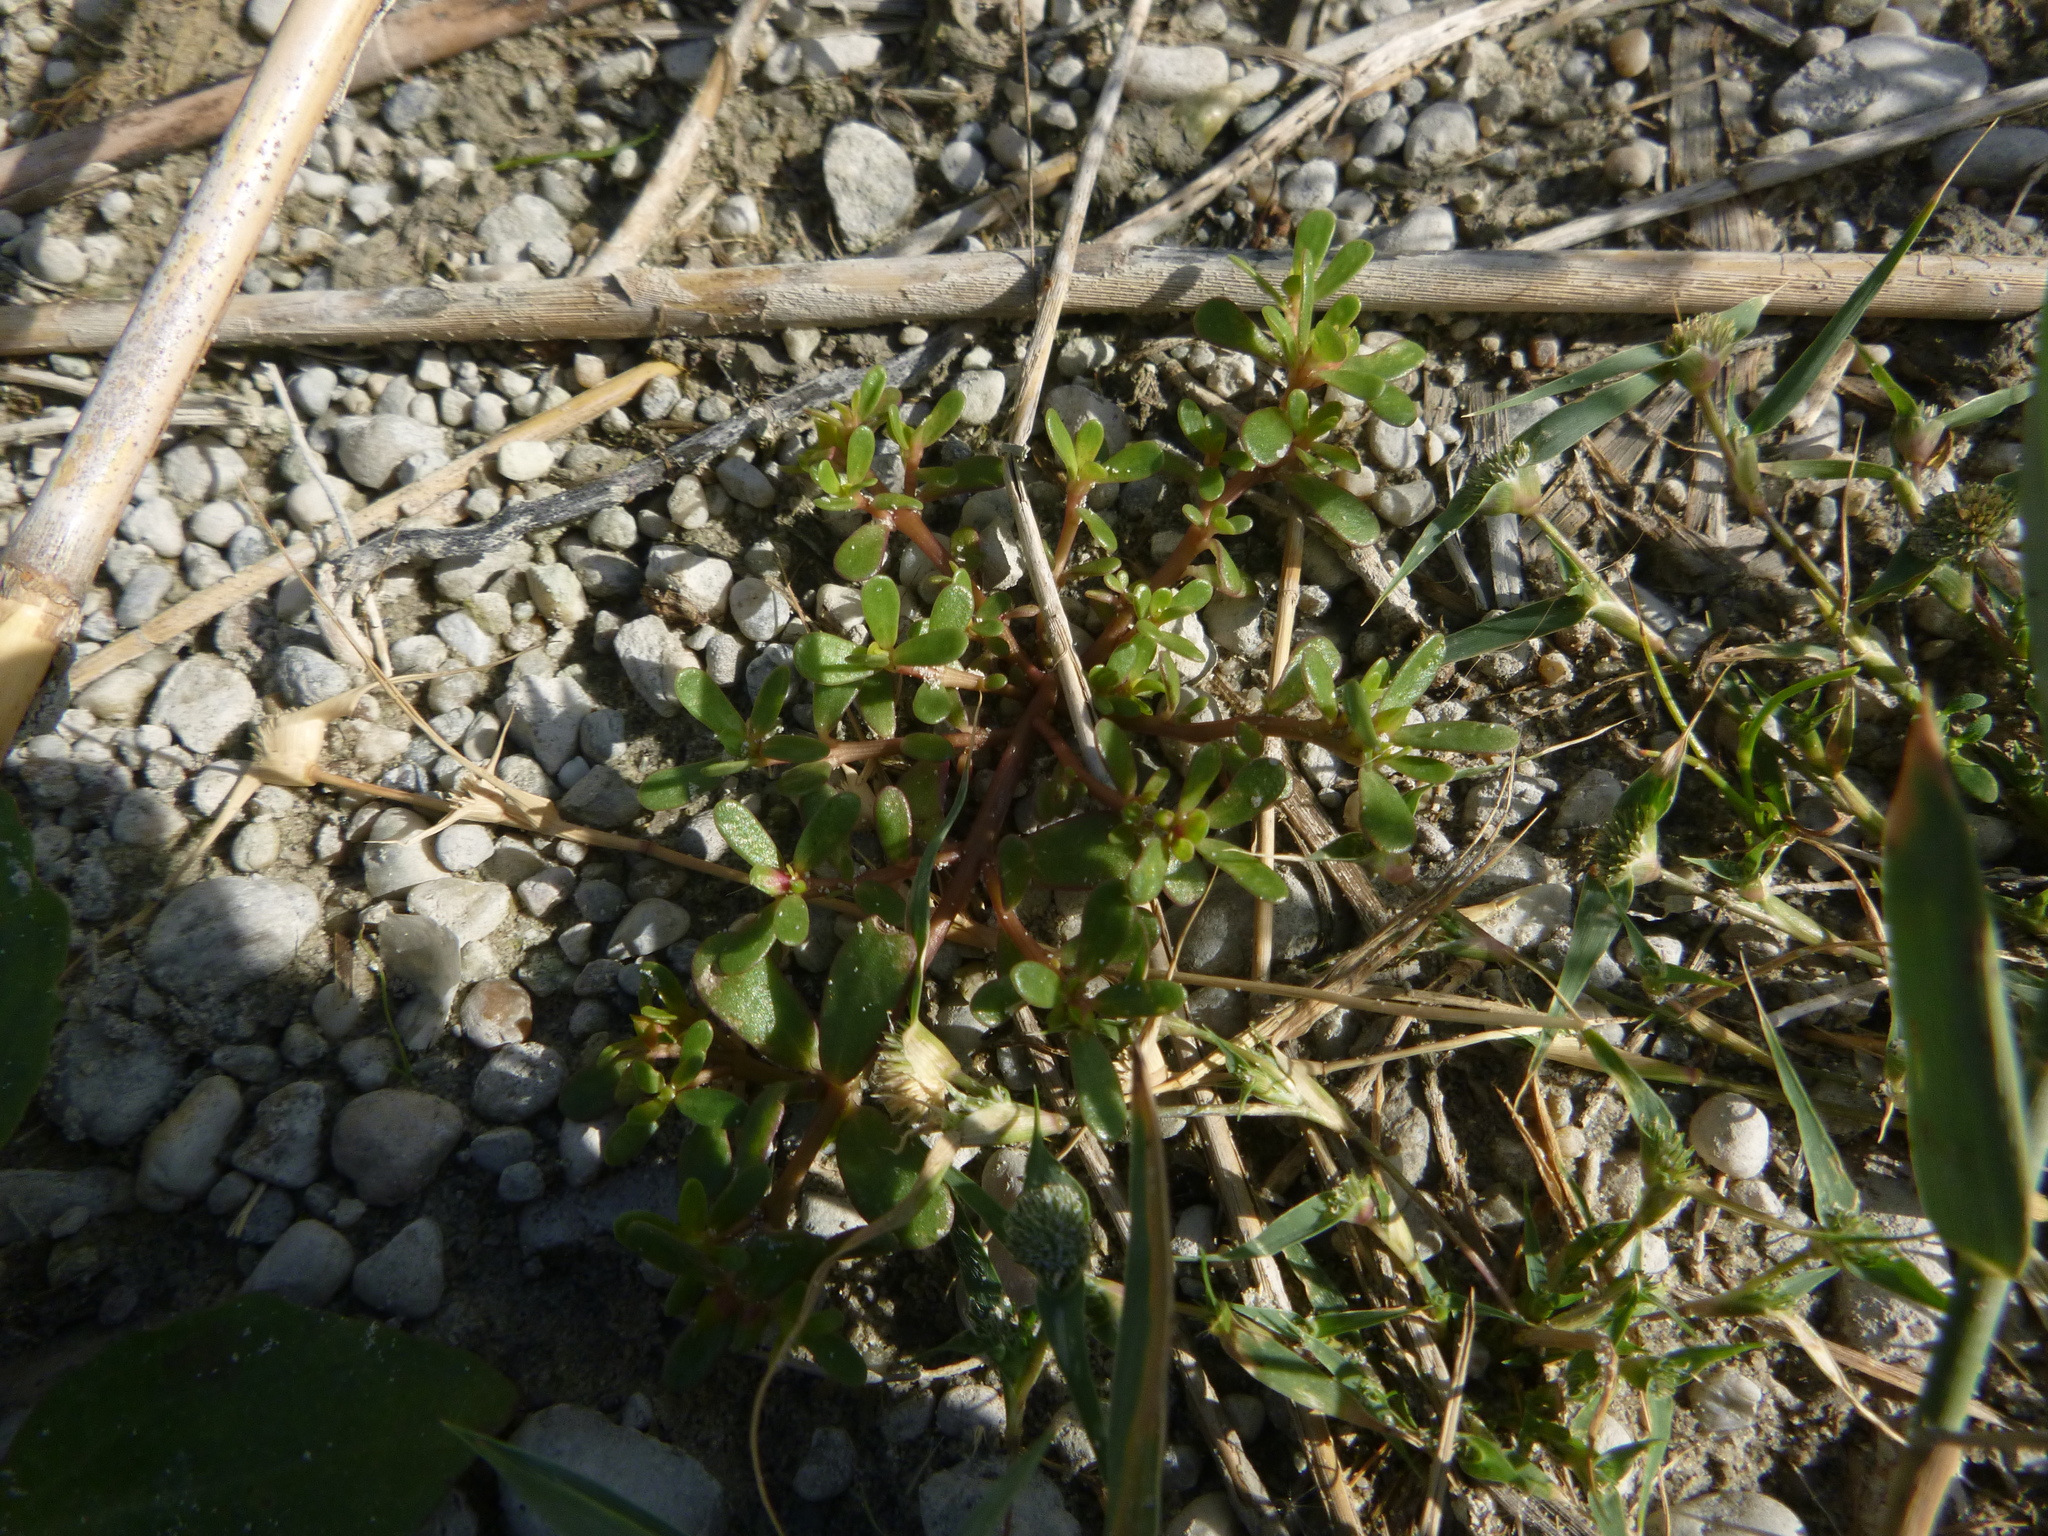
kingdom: Plantae
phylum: Tracheophyta
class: Magnoliopsida
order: Caryophyllales
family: Portulacaceae
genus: Portulaca
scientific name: Portulaca oleracea
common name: Common purslane
